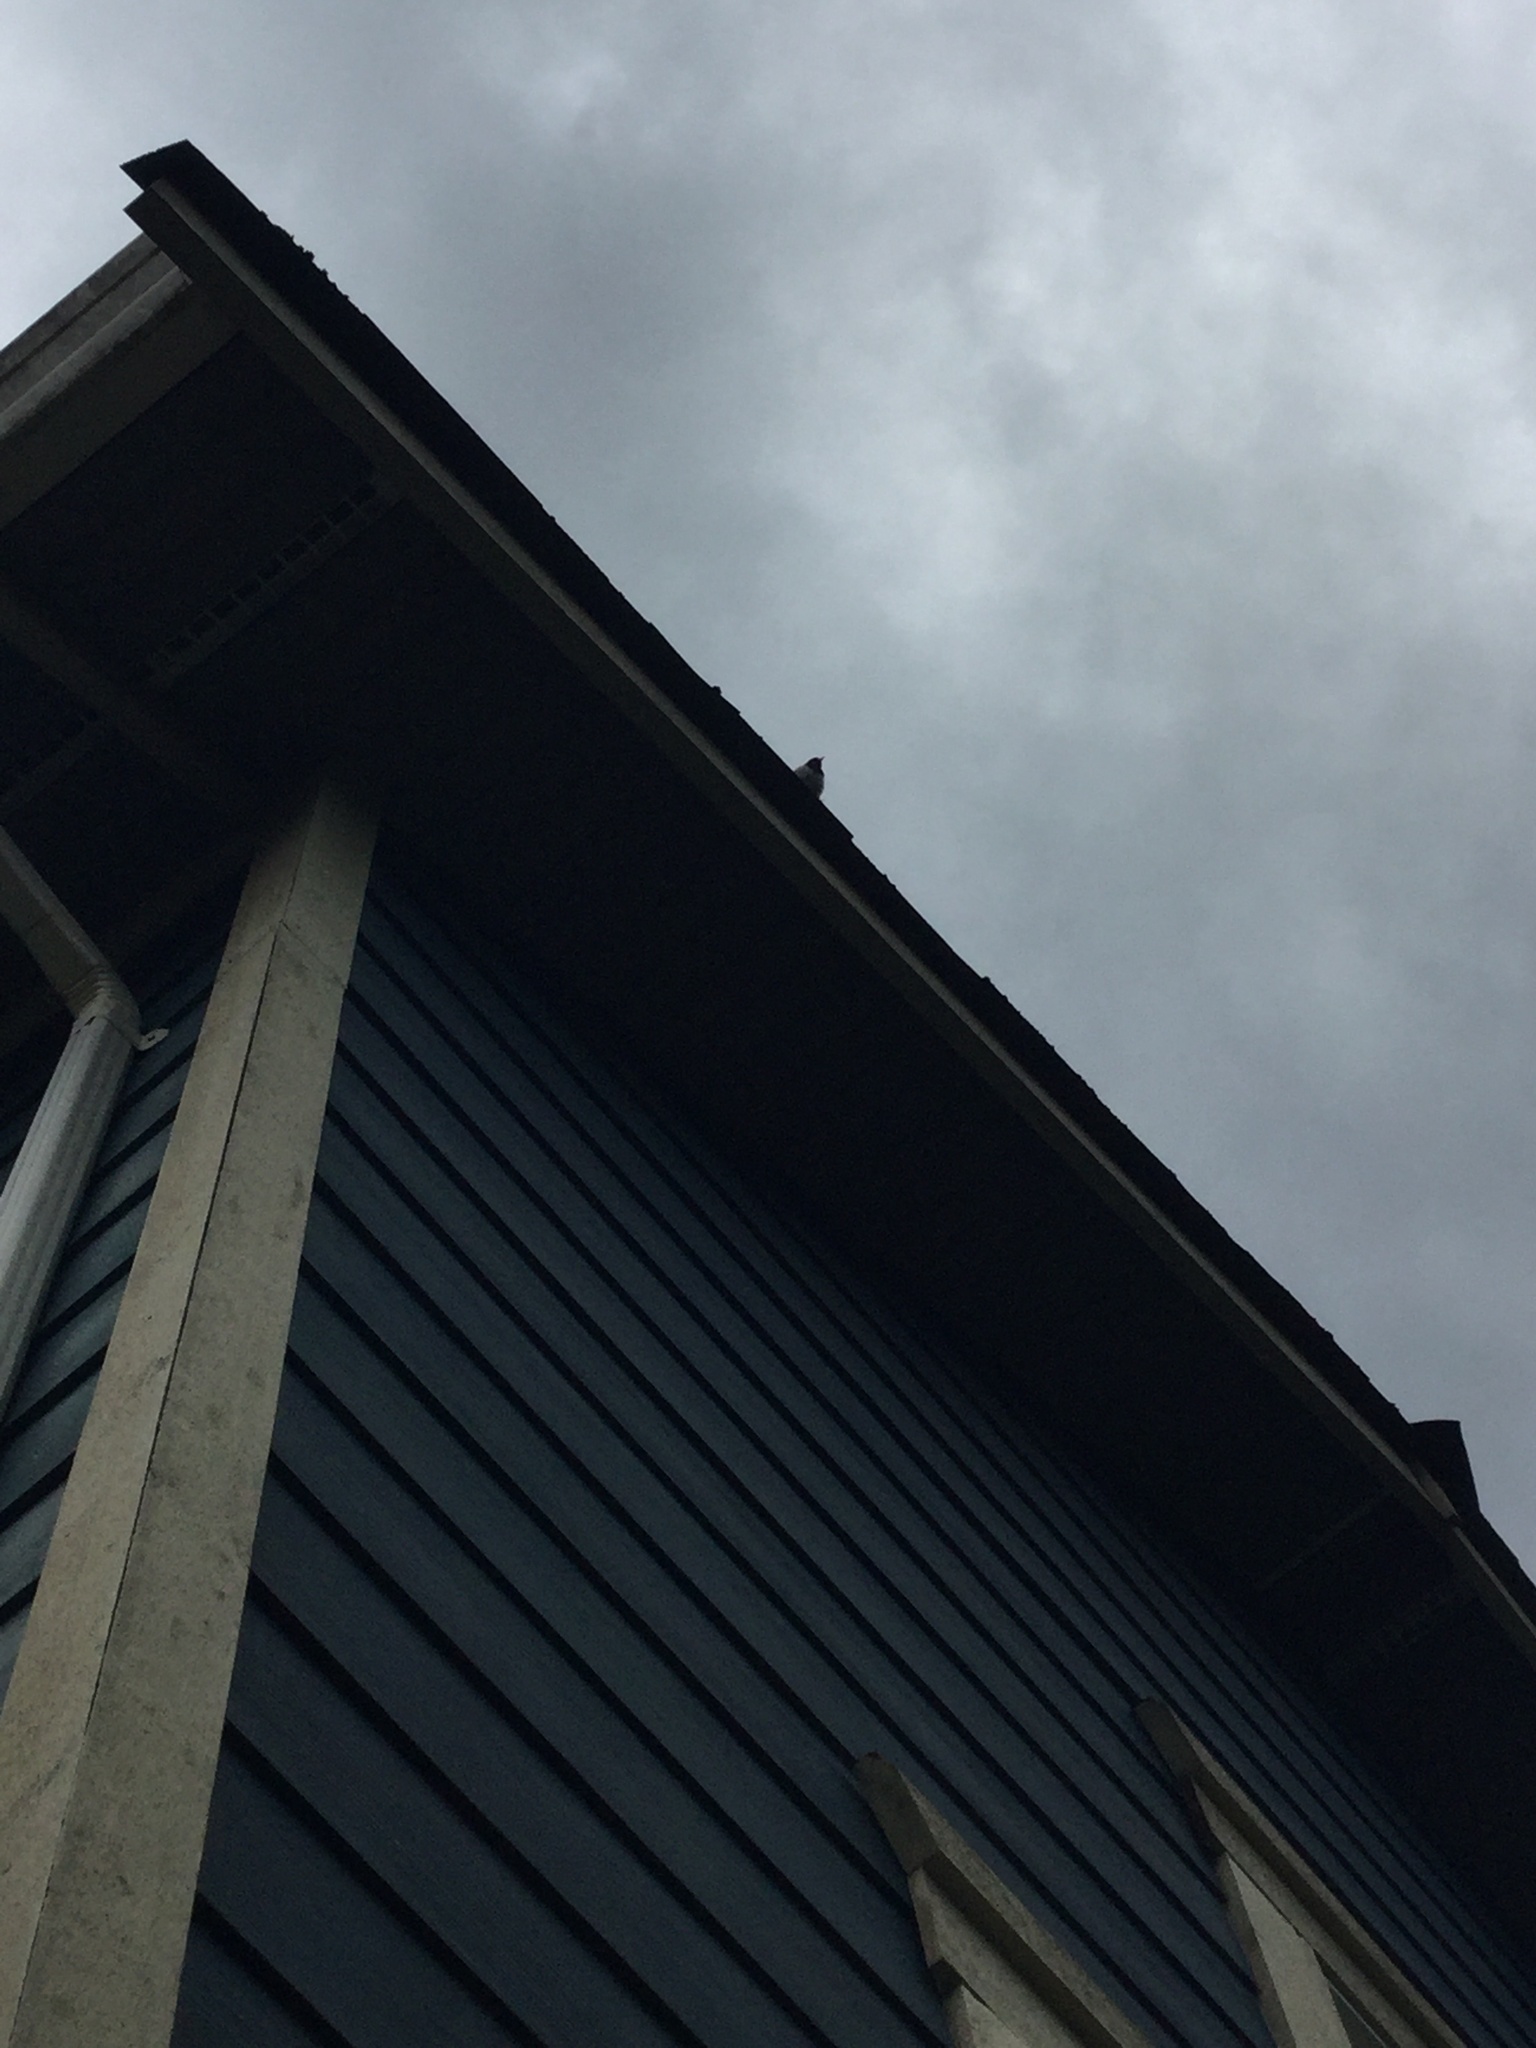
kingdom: Animalia
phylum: Chordata
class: Aves
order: Passeriformes
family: Passerellidae
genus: Junco
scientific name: Junco hyemalis
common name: Dark-eyed junco
